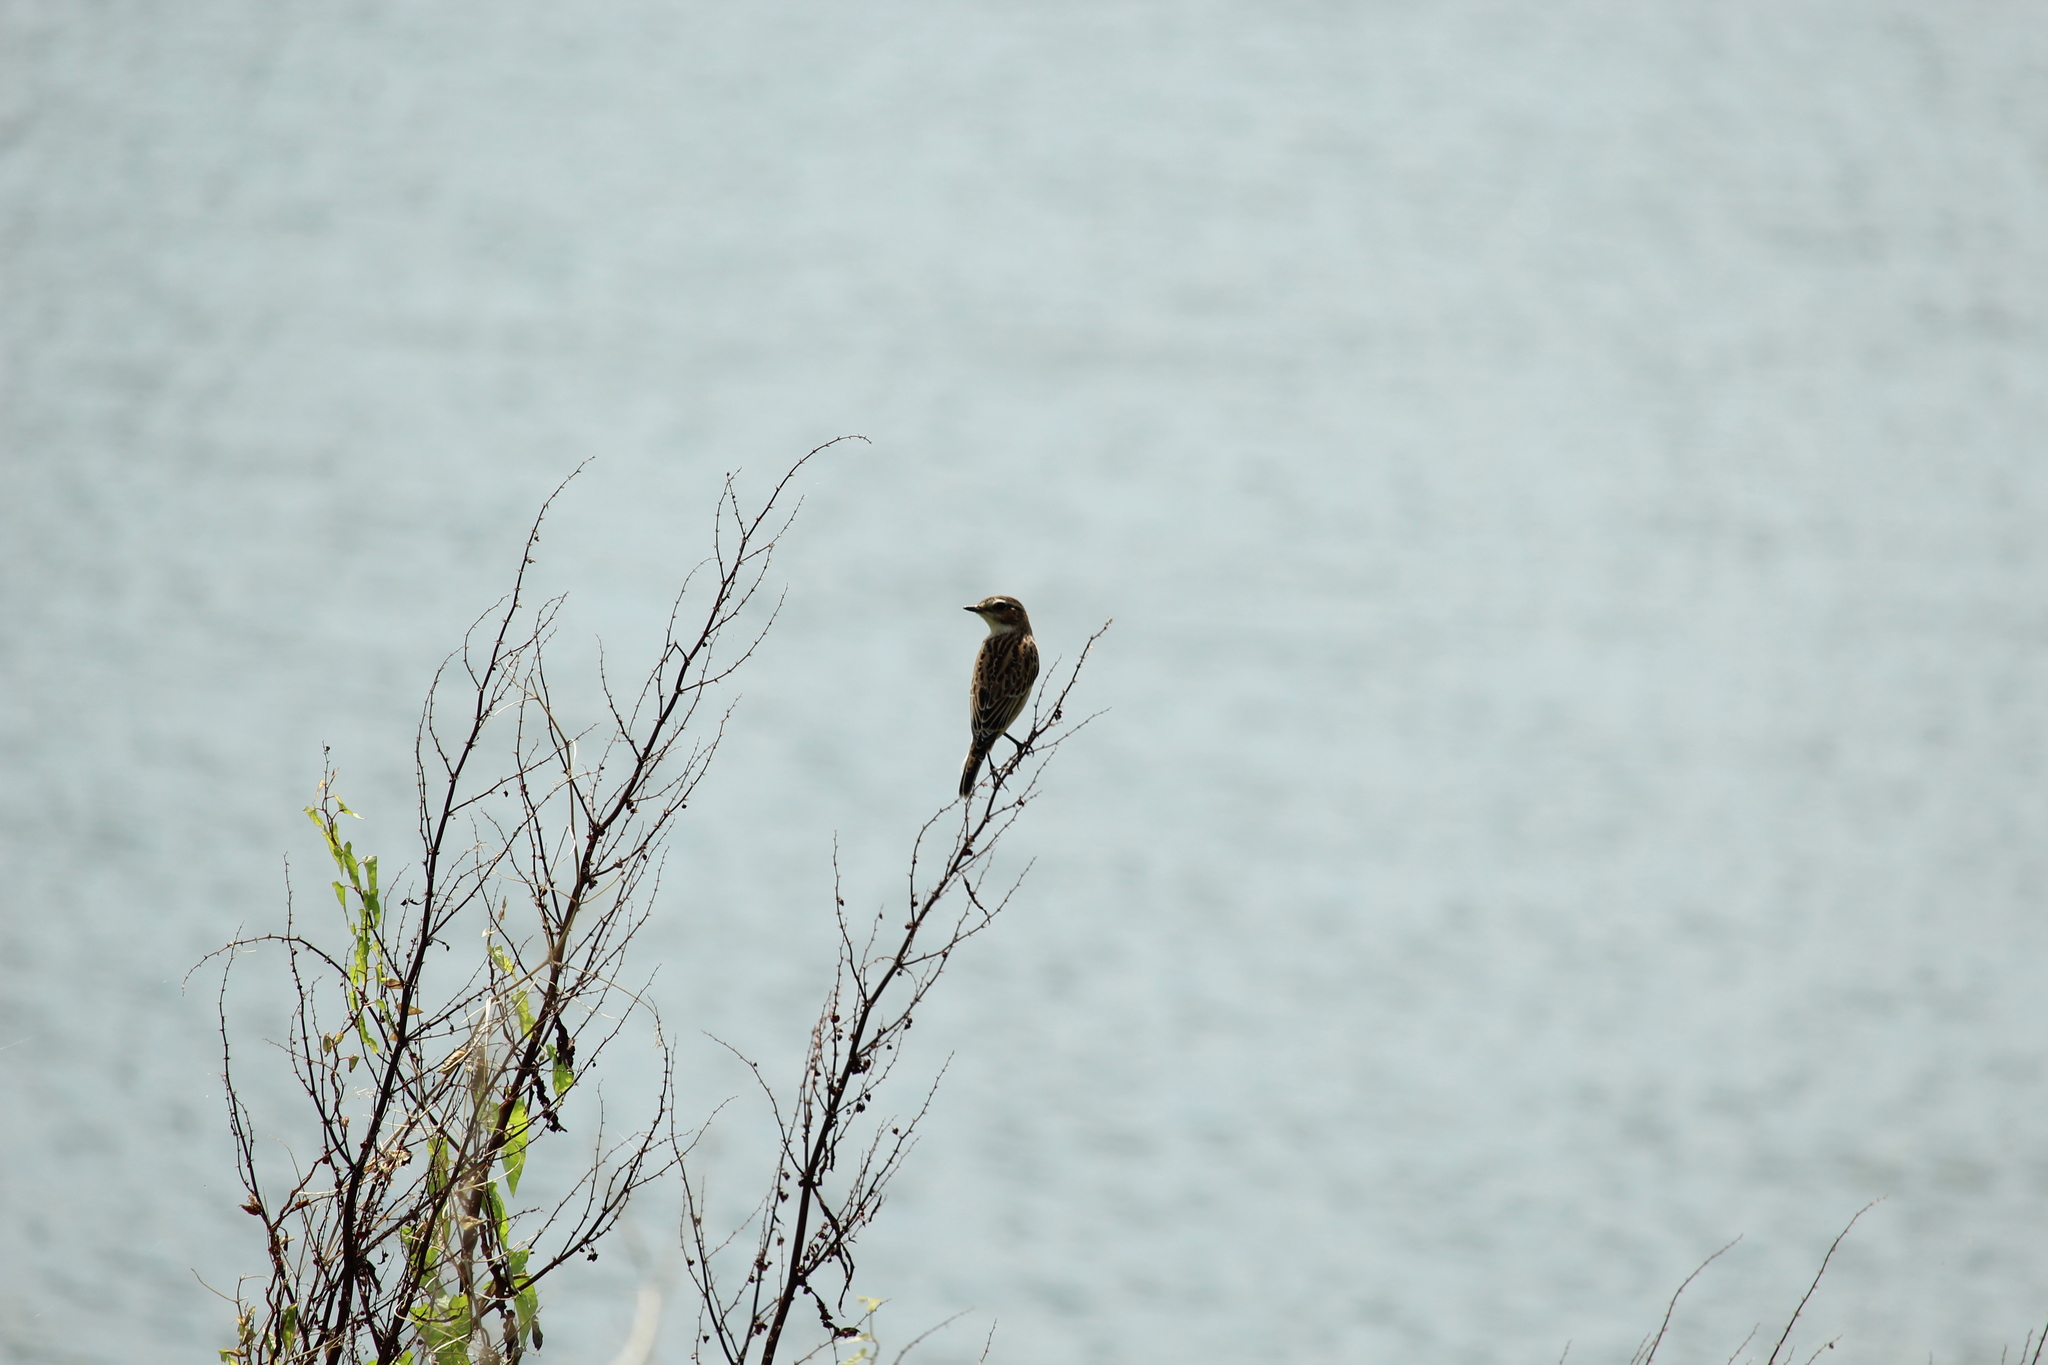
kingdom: Animalia
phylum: Chordata
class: Aves
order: Passeriformes
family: Muscicapidae
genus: Saxicola
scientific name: Saxicola rubetra
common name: Whinchat
